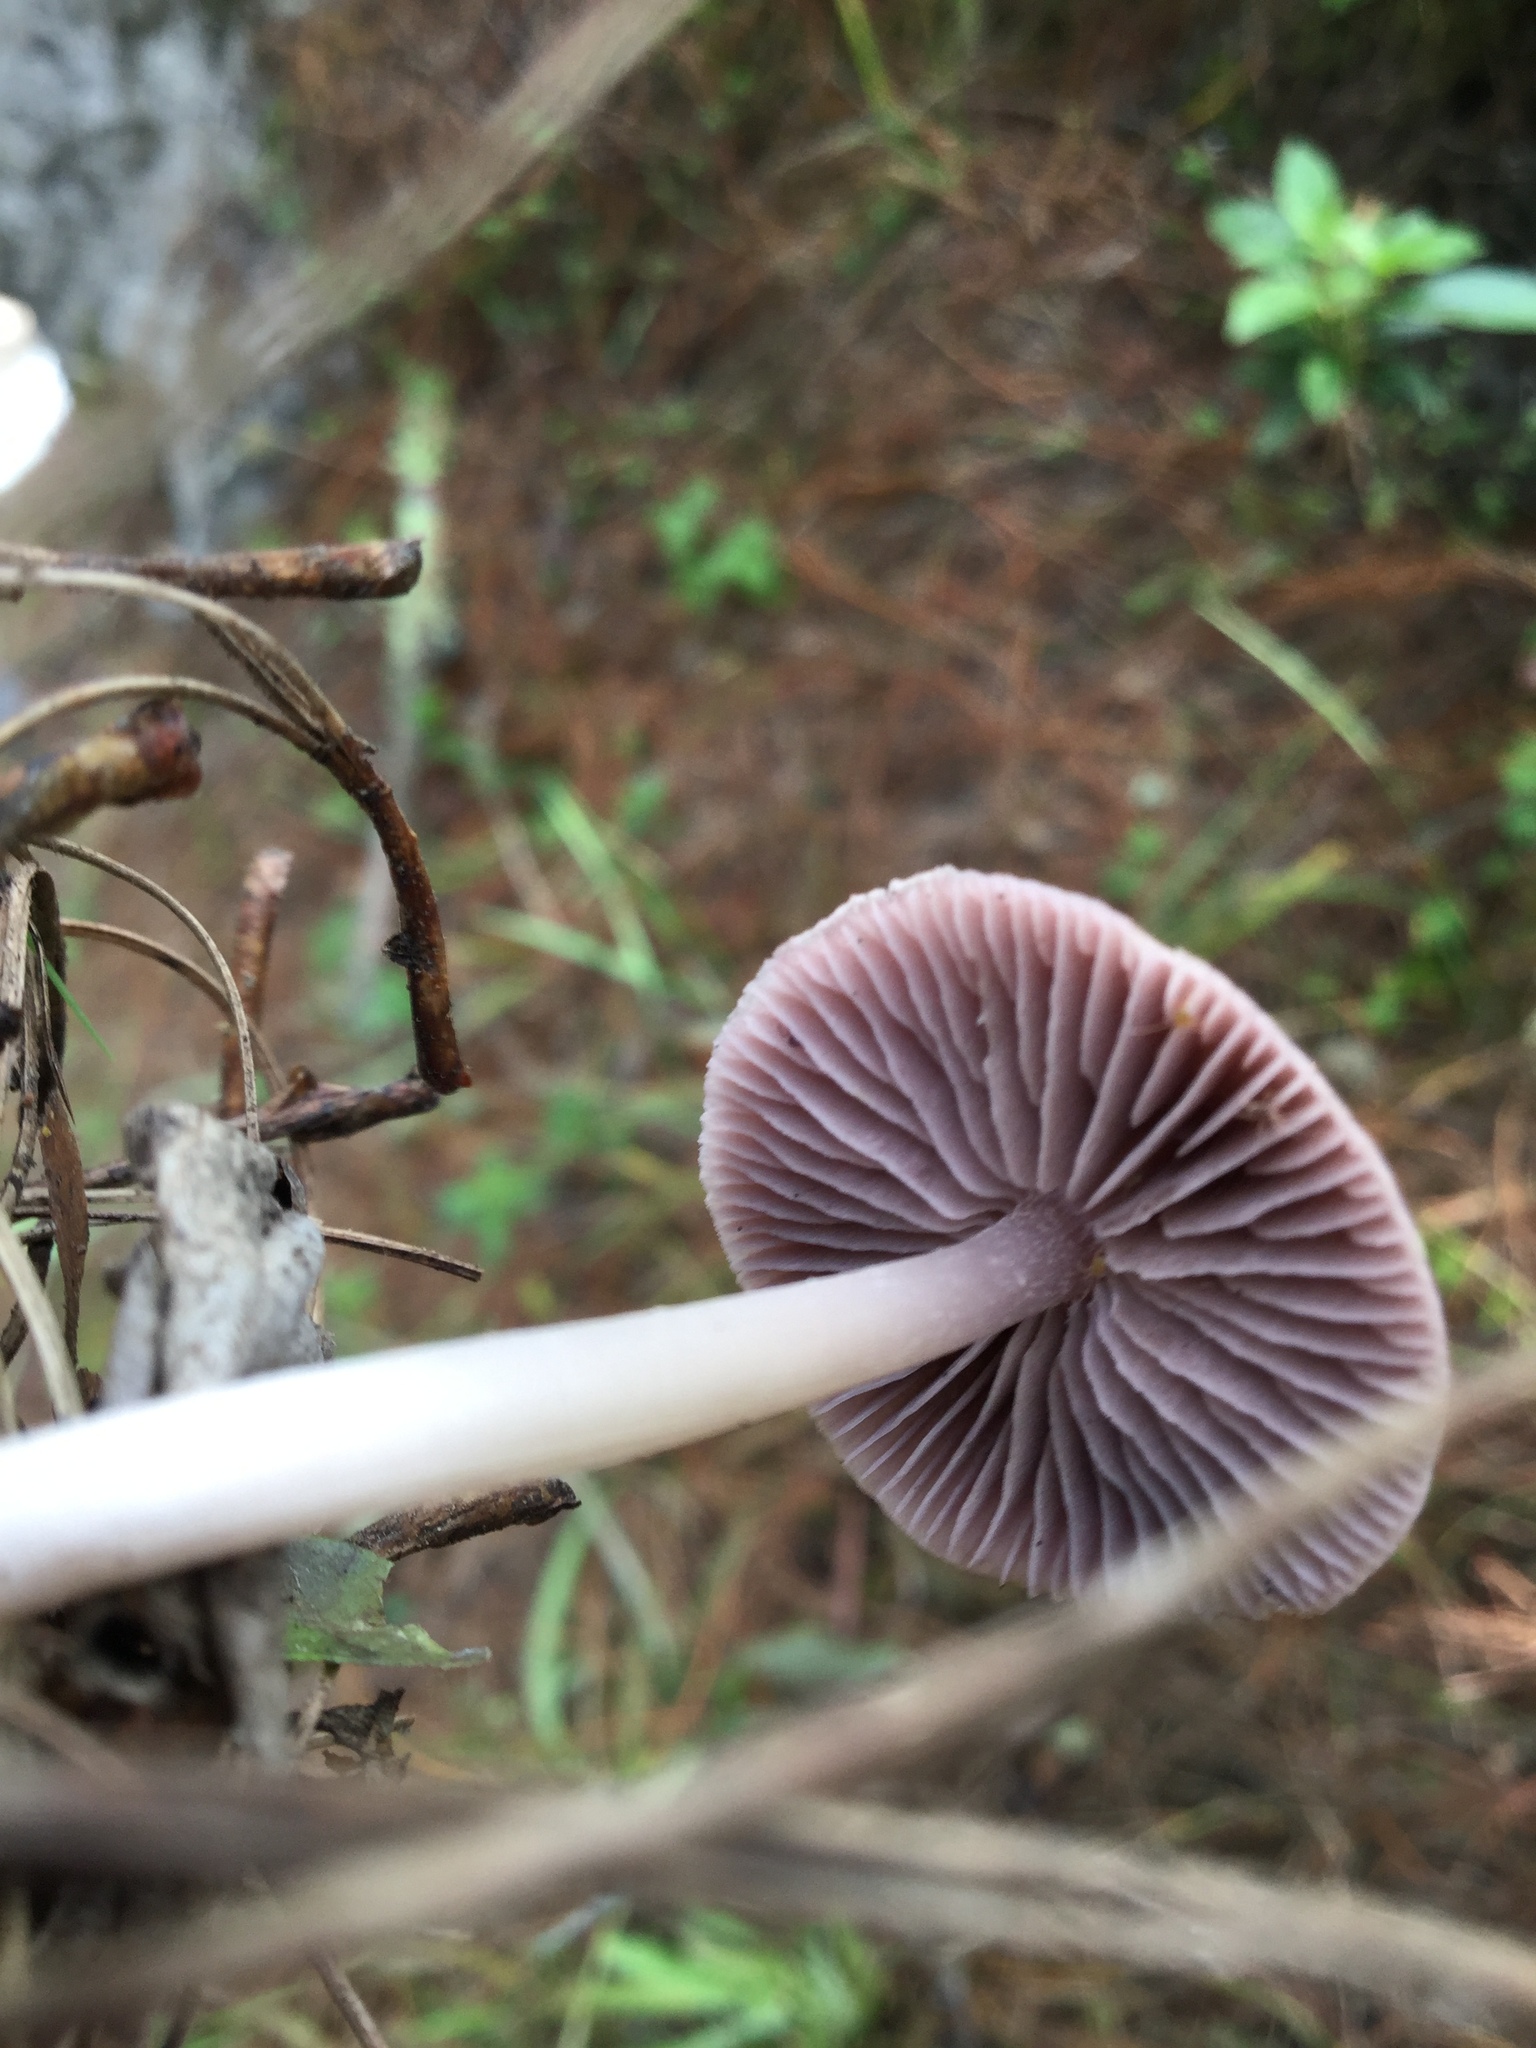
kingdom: Fungi
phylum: Basidiomycota
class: Agaricomycetes
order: Agaricales
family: Mycenaceae
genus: Mycena
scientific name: Mycena pura
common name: Lilac bonnet
